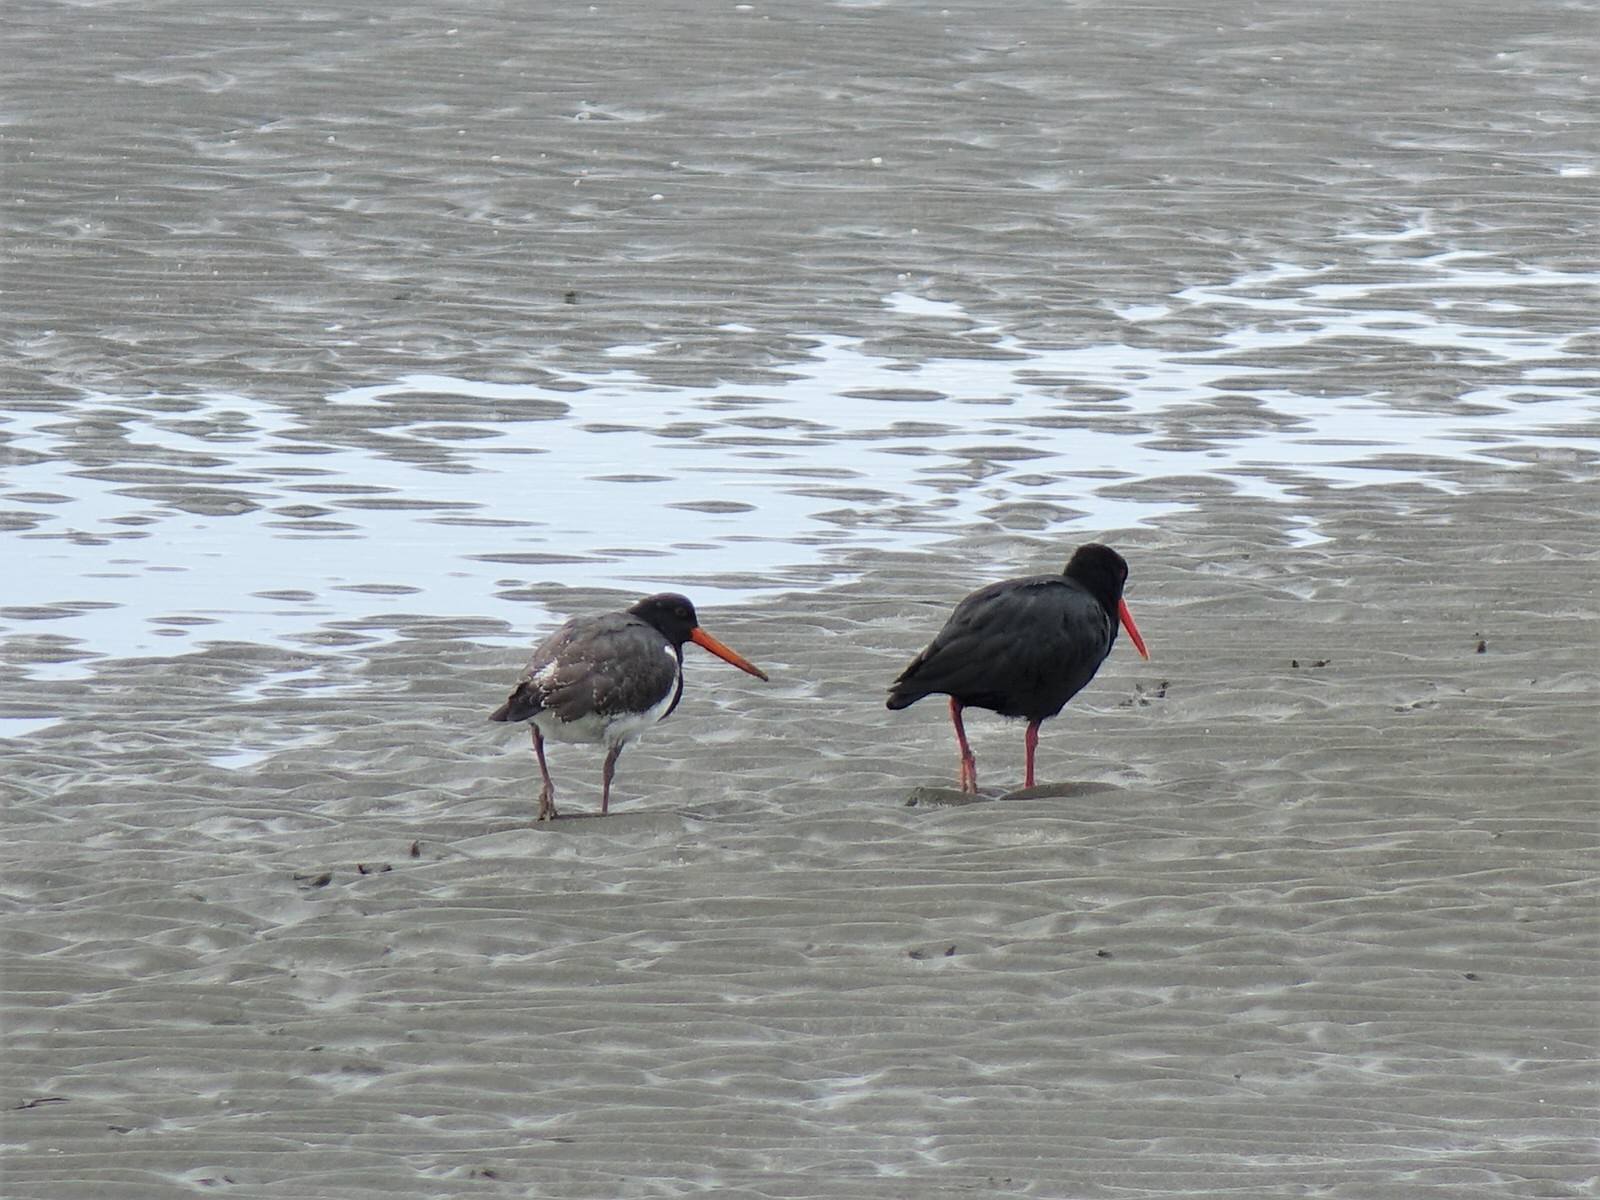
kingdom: Animalia
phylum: Chordata
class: Aves
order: Charadriiformes
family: Haematopodidae
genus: Haematopus
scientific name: Haematopus unicolor
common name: Variable oystercatcher
